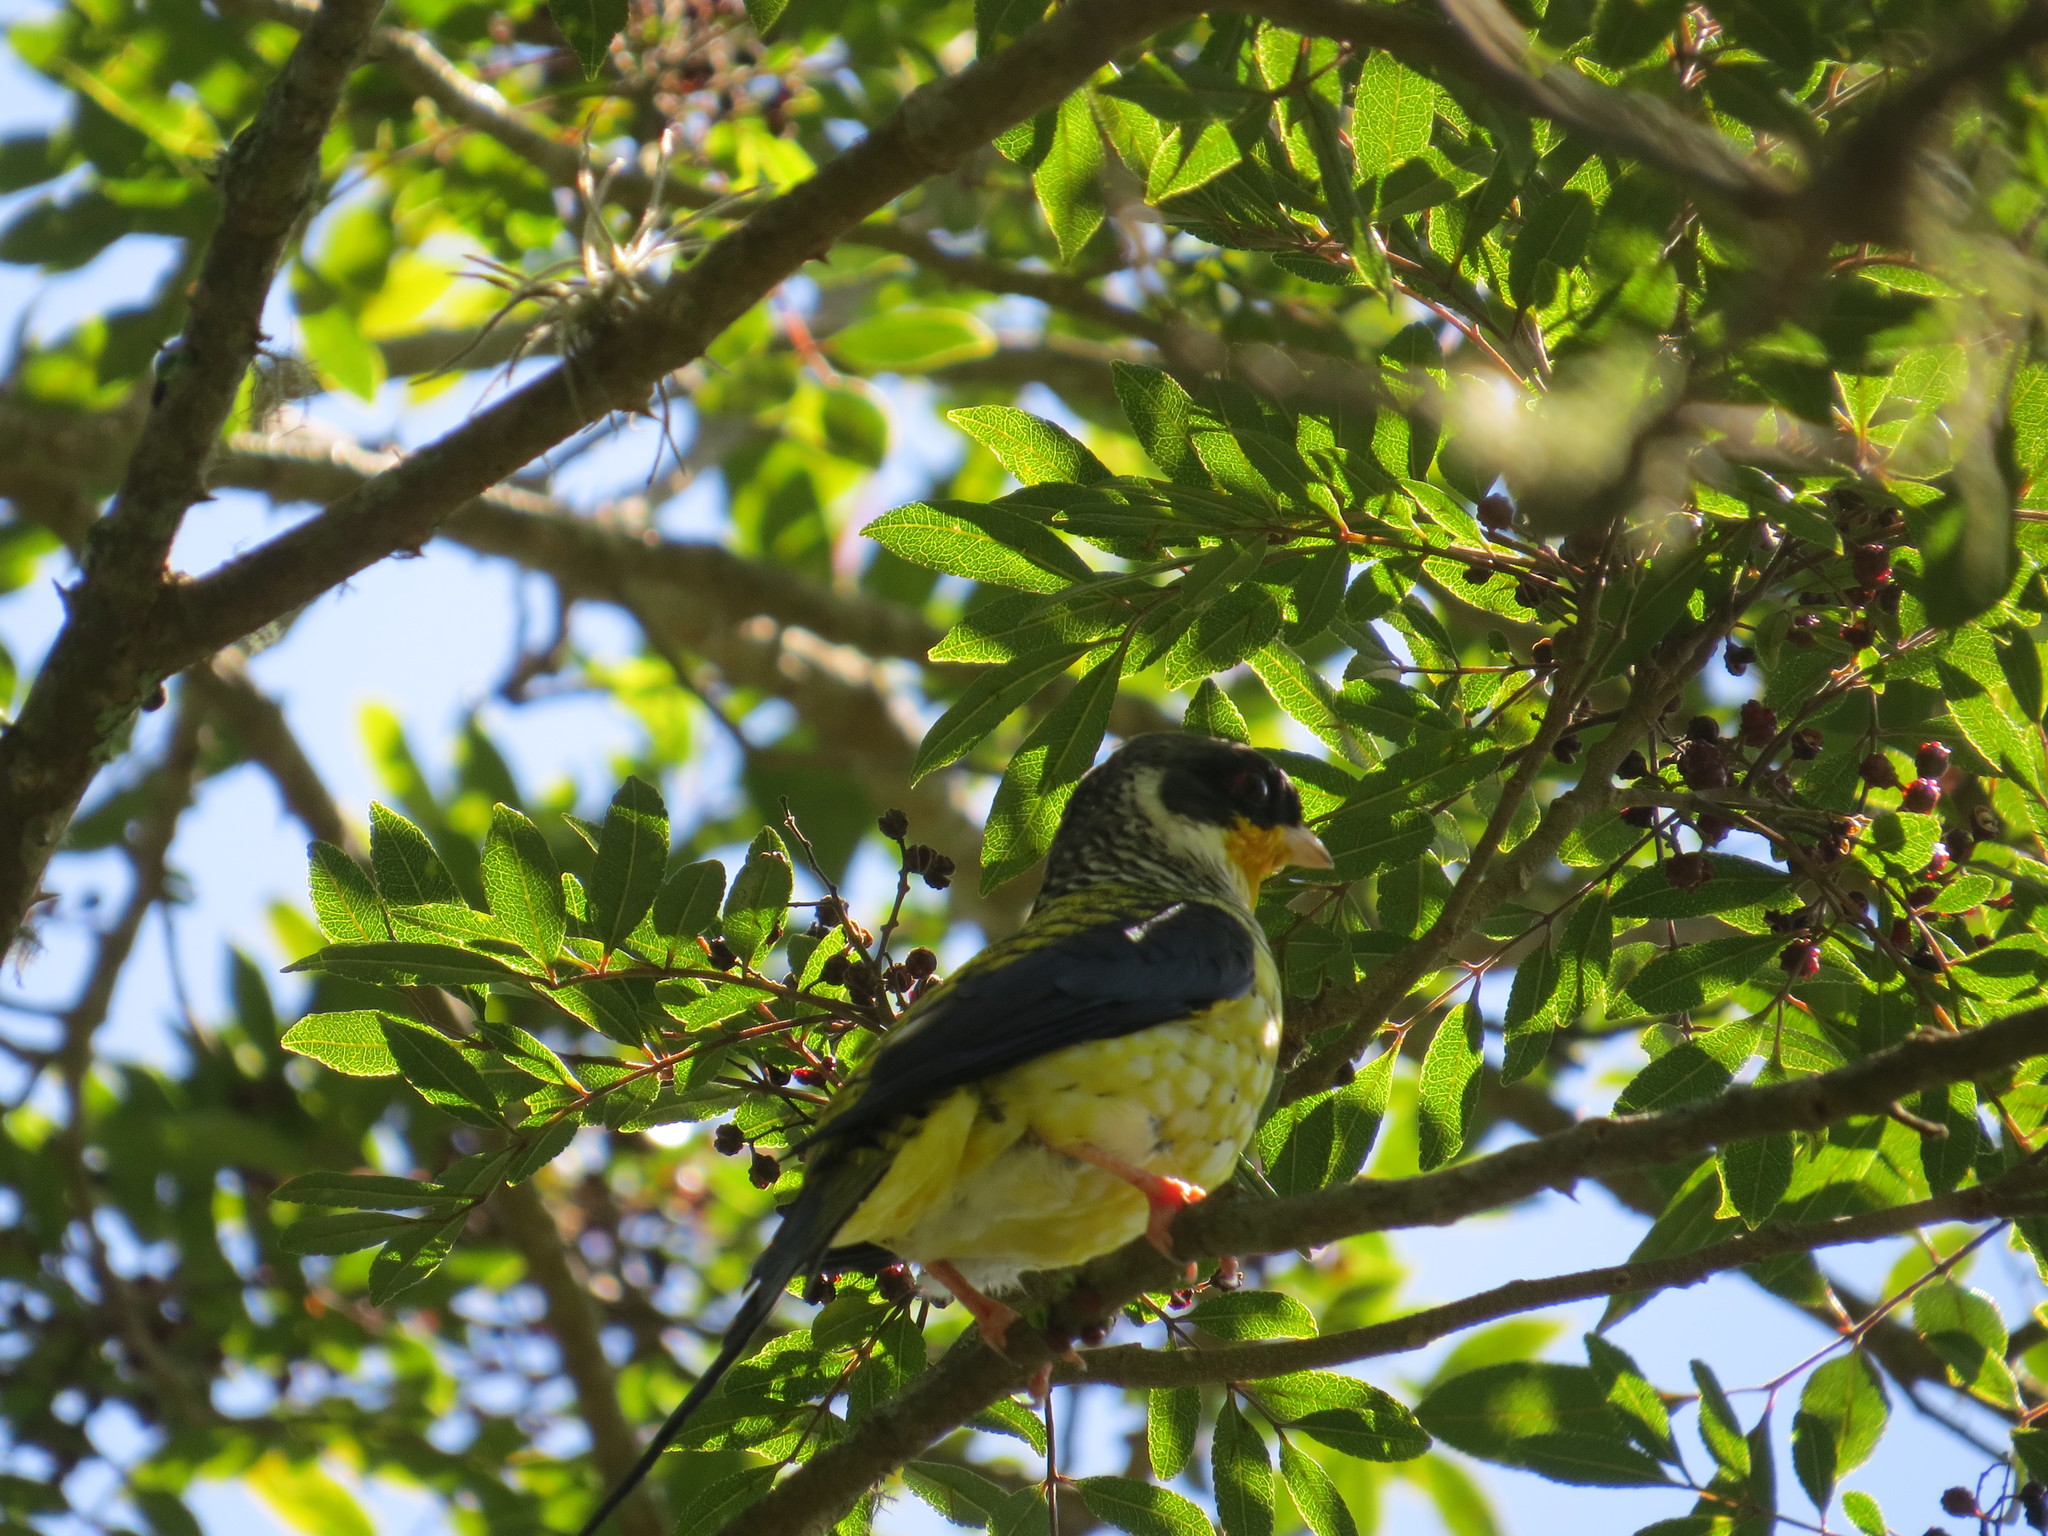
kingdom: Animalia
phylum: Chordata
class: Aves
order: Passeriformes
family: Cotingidae
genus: Phibalura
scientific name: Phibalura flavirostris
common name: Swallow-tailed cotinga
